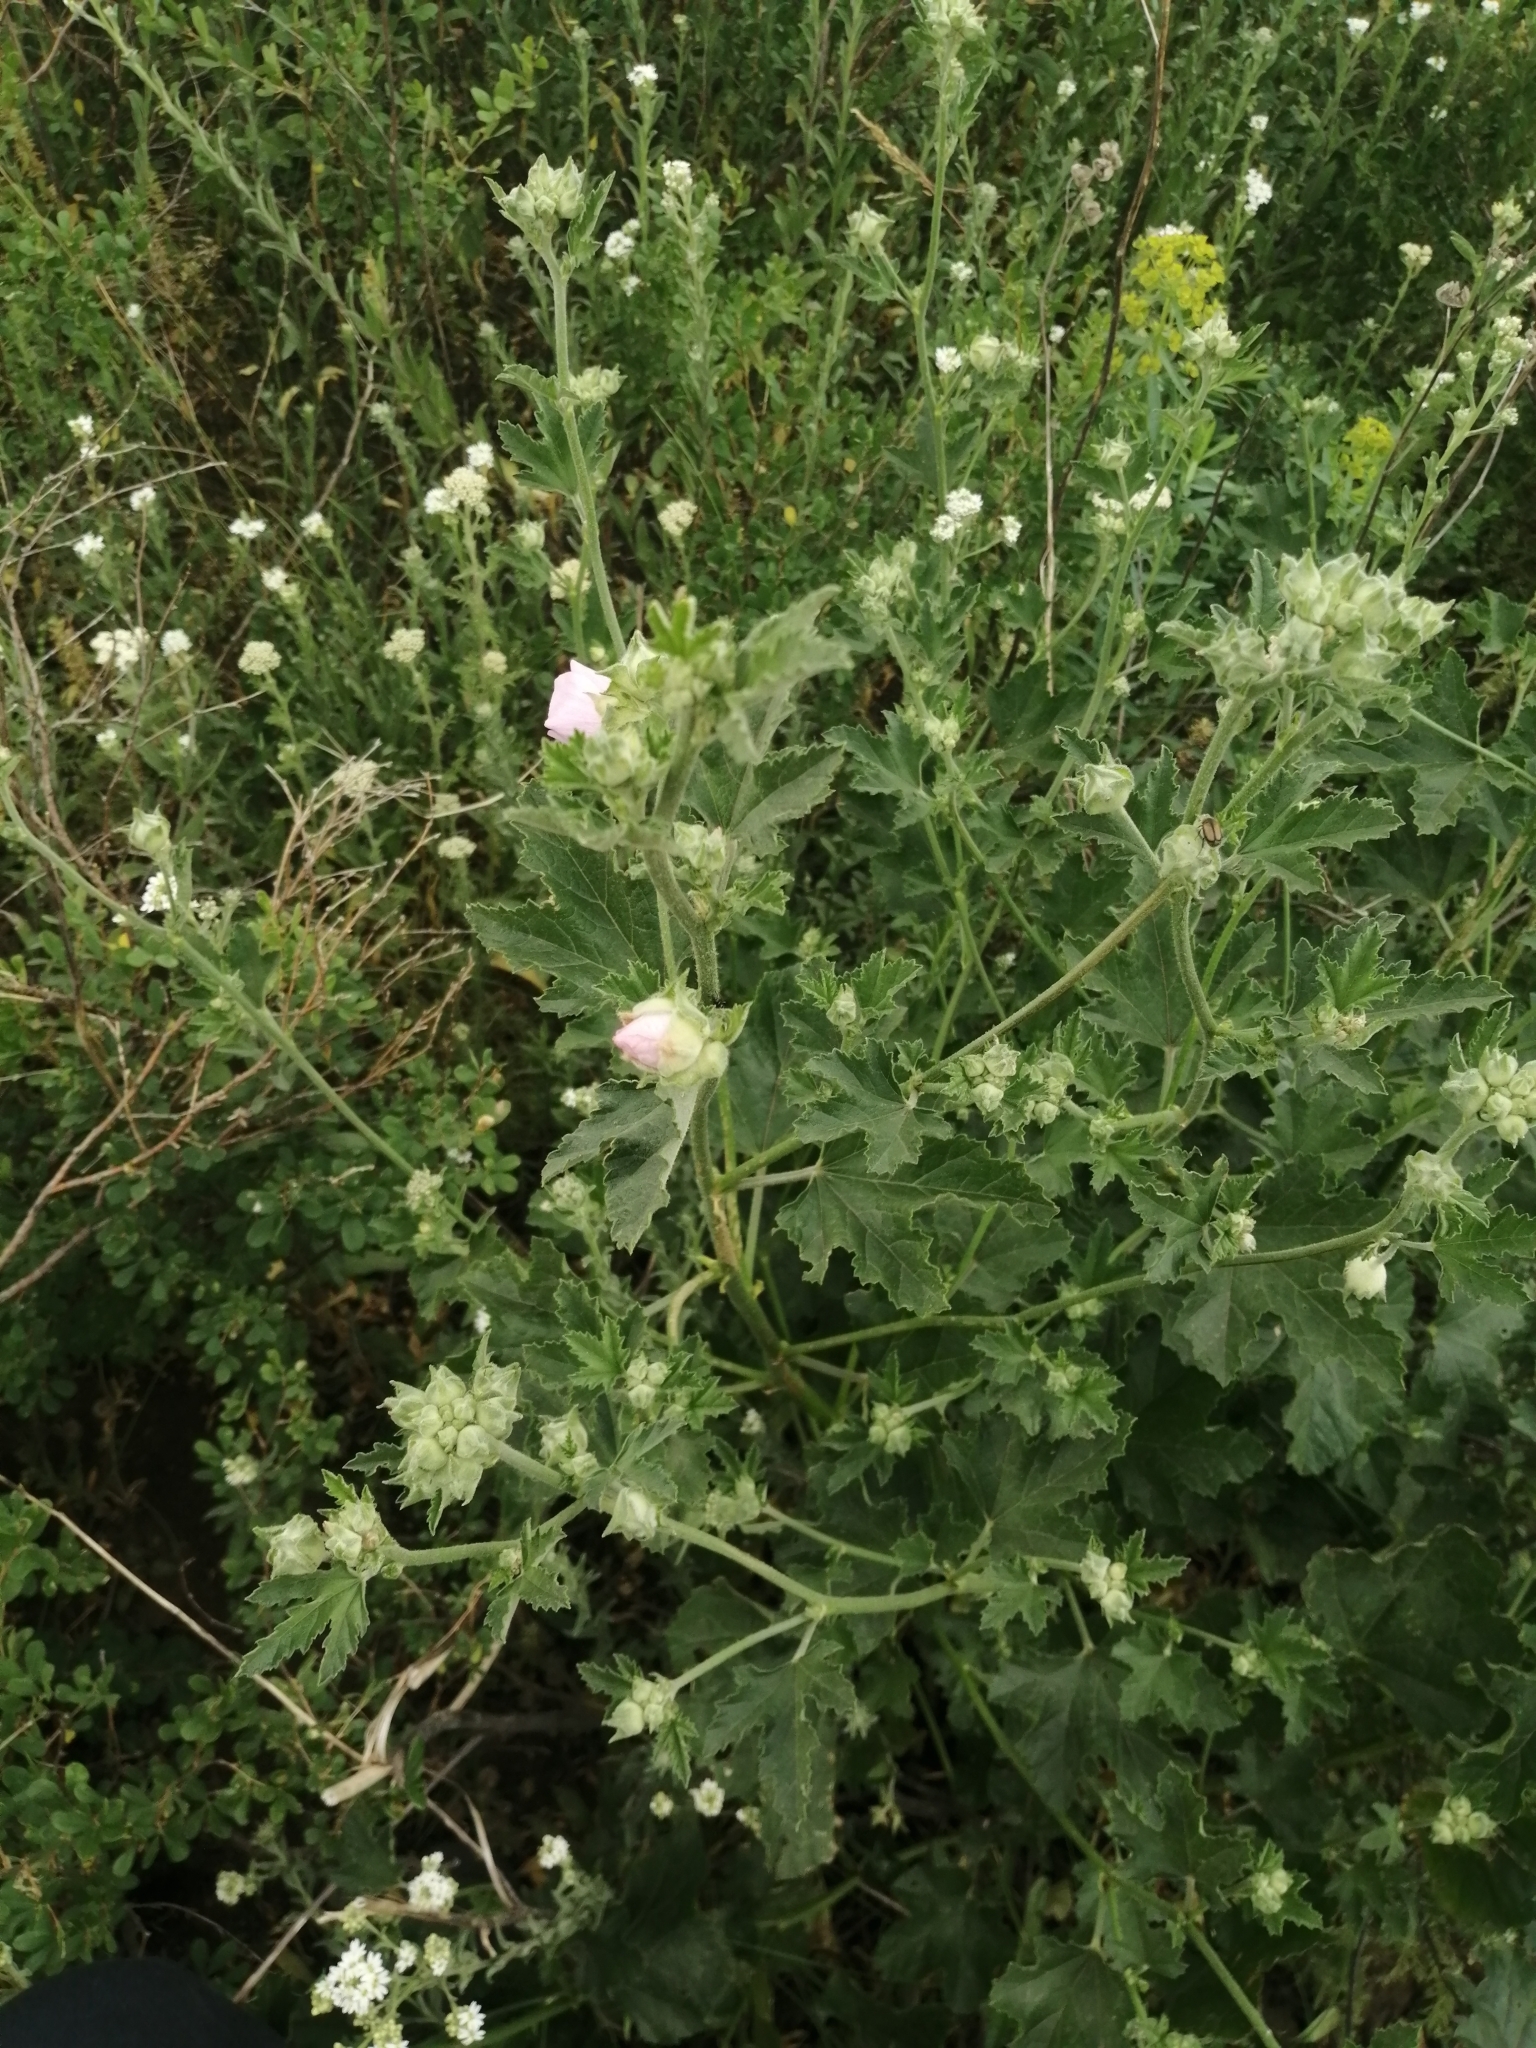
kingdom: Plantae
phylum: Tracheophyta
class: Magnoliopsida
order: Malvales
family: Malvaceae
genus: Malva
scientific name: Malva thuringiaca
